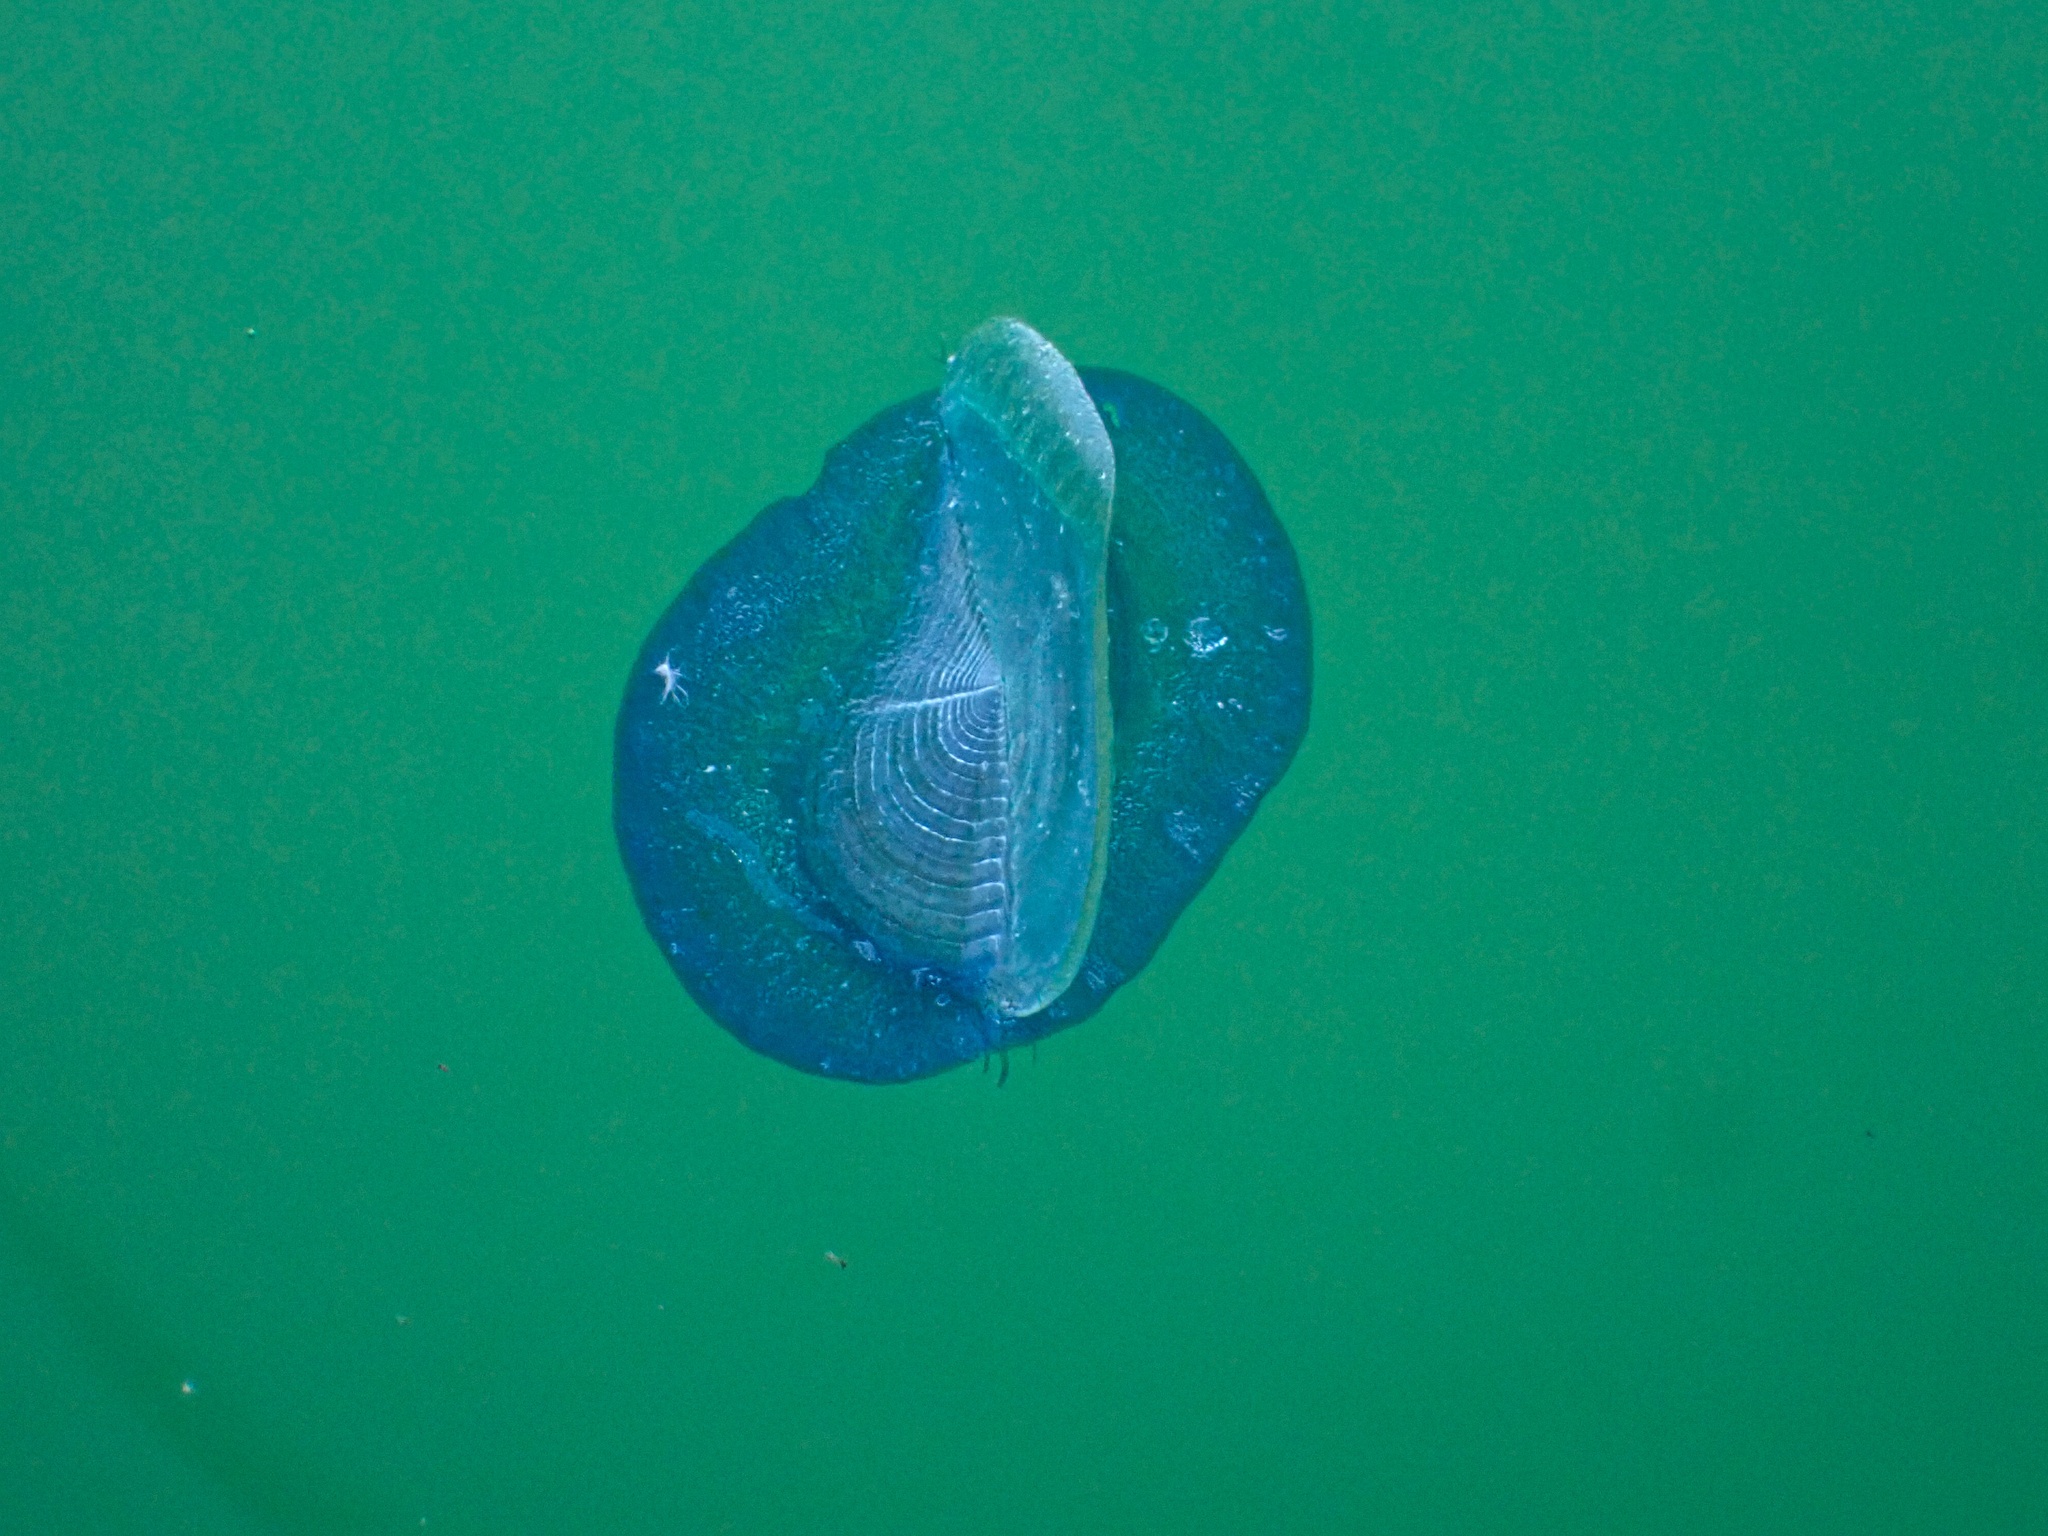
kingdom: Animalia
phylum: Cnidaria
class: Hydrozoa
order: Anthoathecata
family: Porpitidae
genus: Velella
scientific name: Velella velella
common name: By-the-wind-sailor
